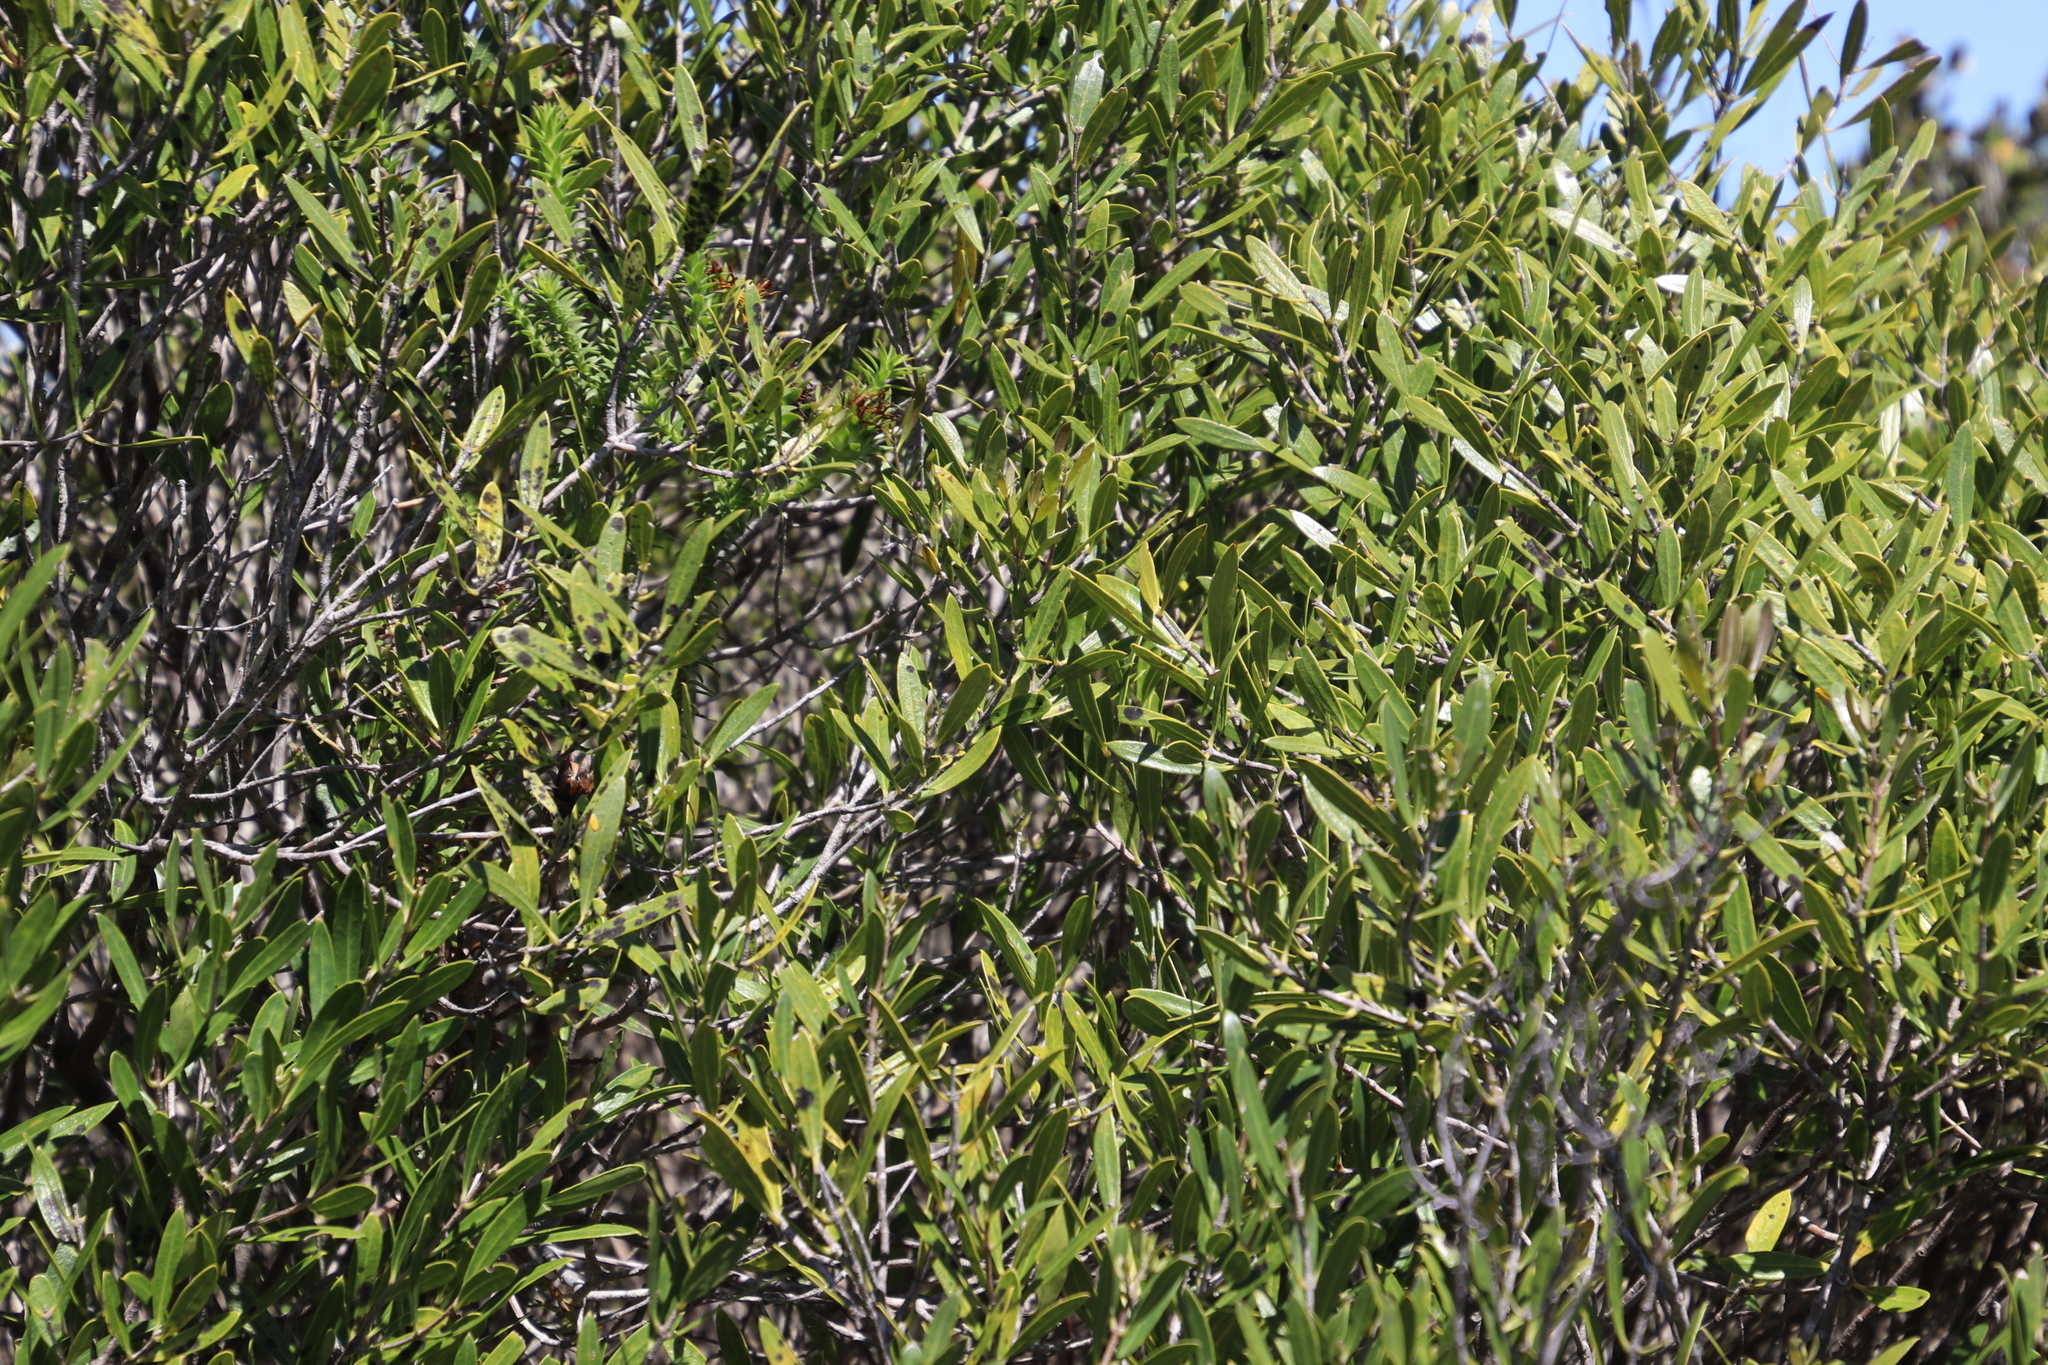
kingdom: Plantae
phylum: Tracheophyta
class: Magnoliopsida
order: Lamiales
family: Oleaceae
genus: Olea
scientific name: Olea exasperata
